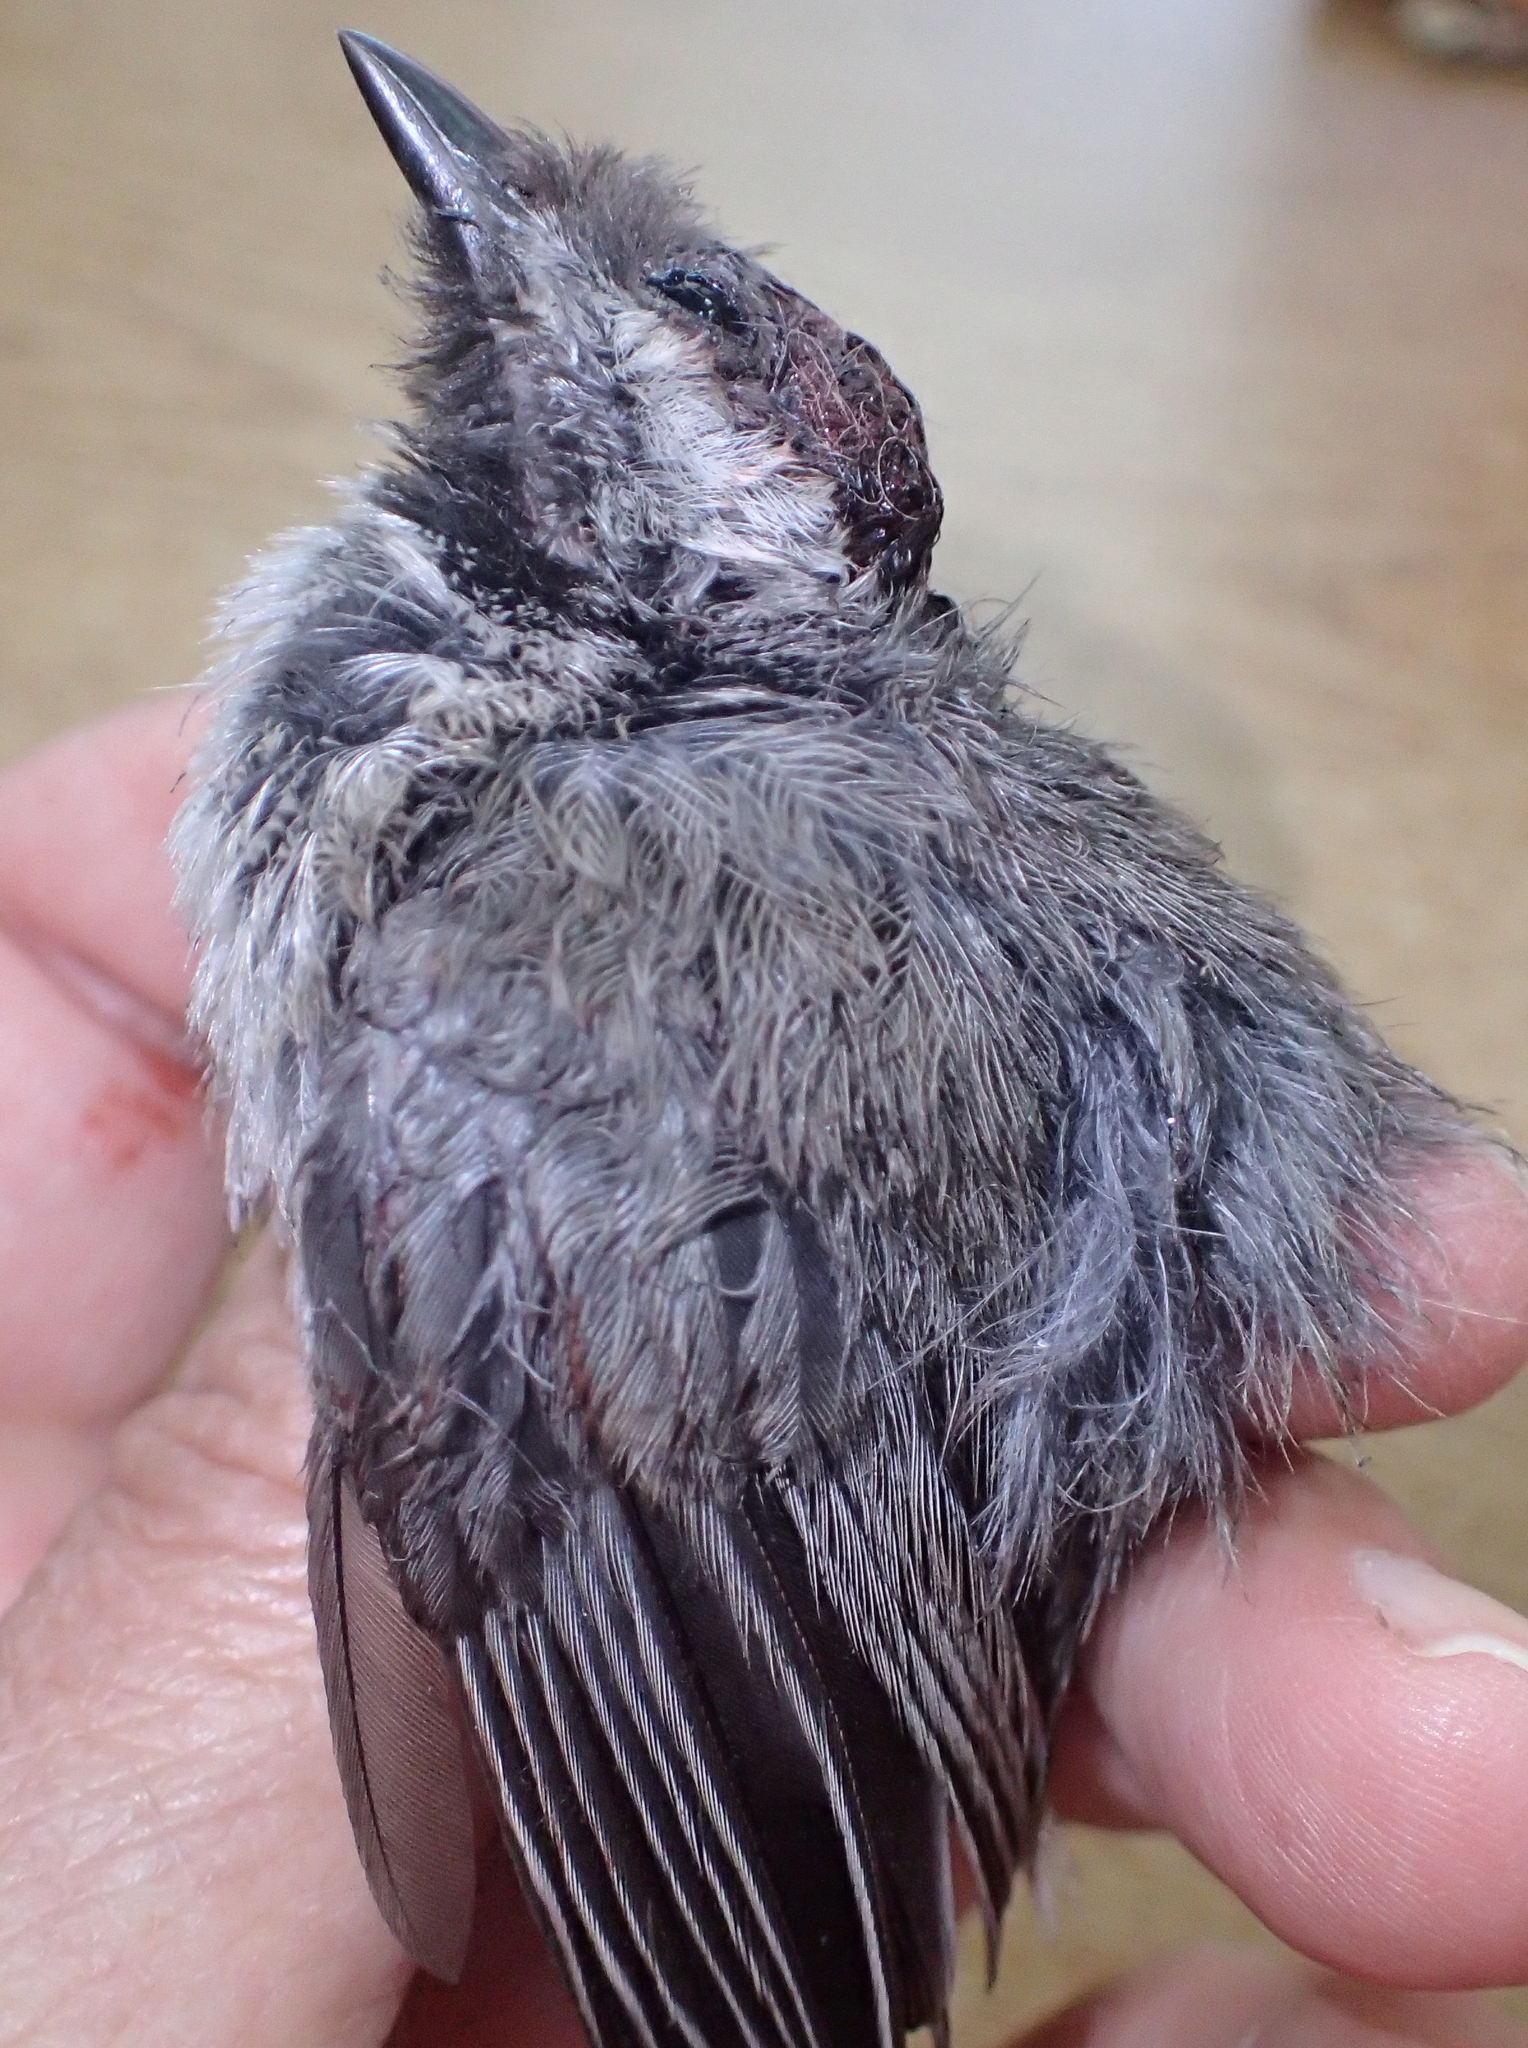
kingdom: Animalia
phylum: Chordata
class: Aves
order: Passeriformes
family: Paridae
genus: Poecile
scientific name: Poecile hudsonicus
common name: Boreal chickadee
